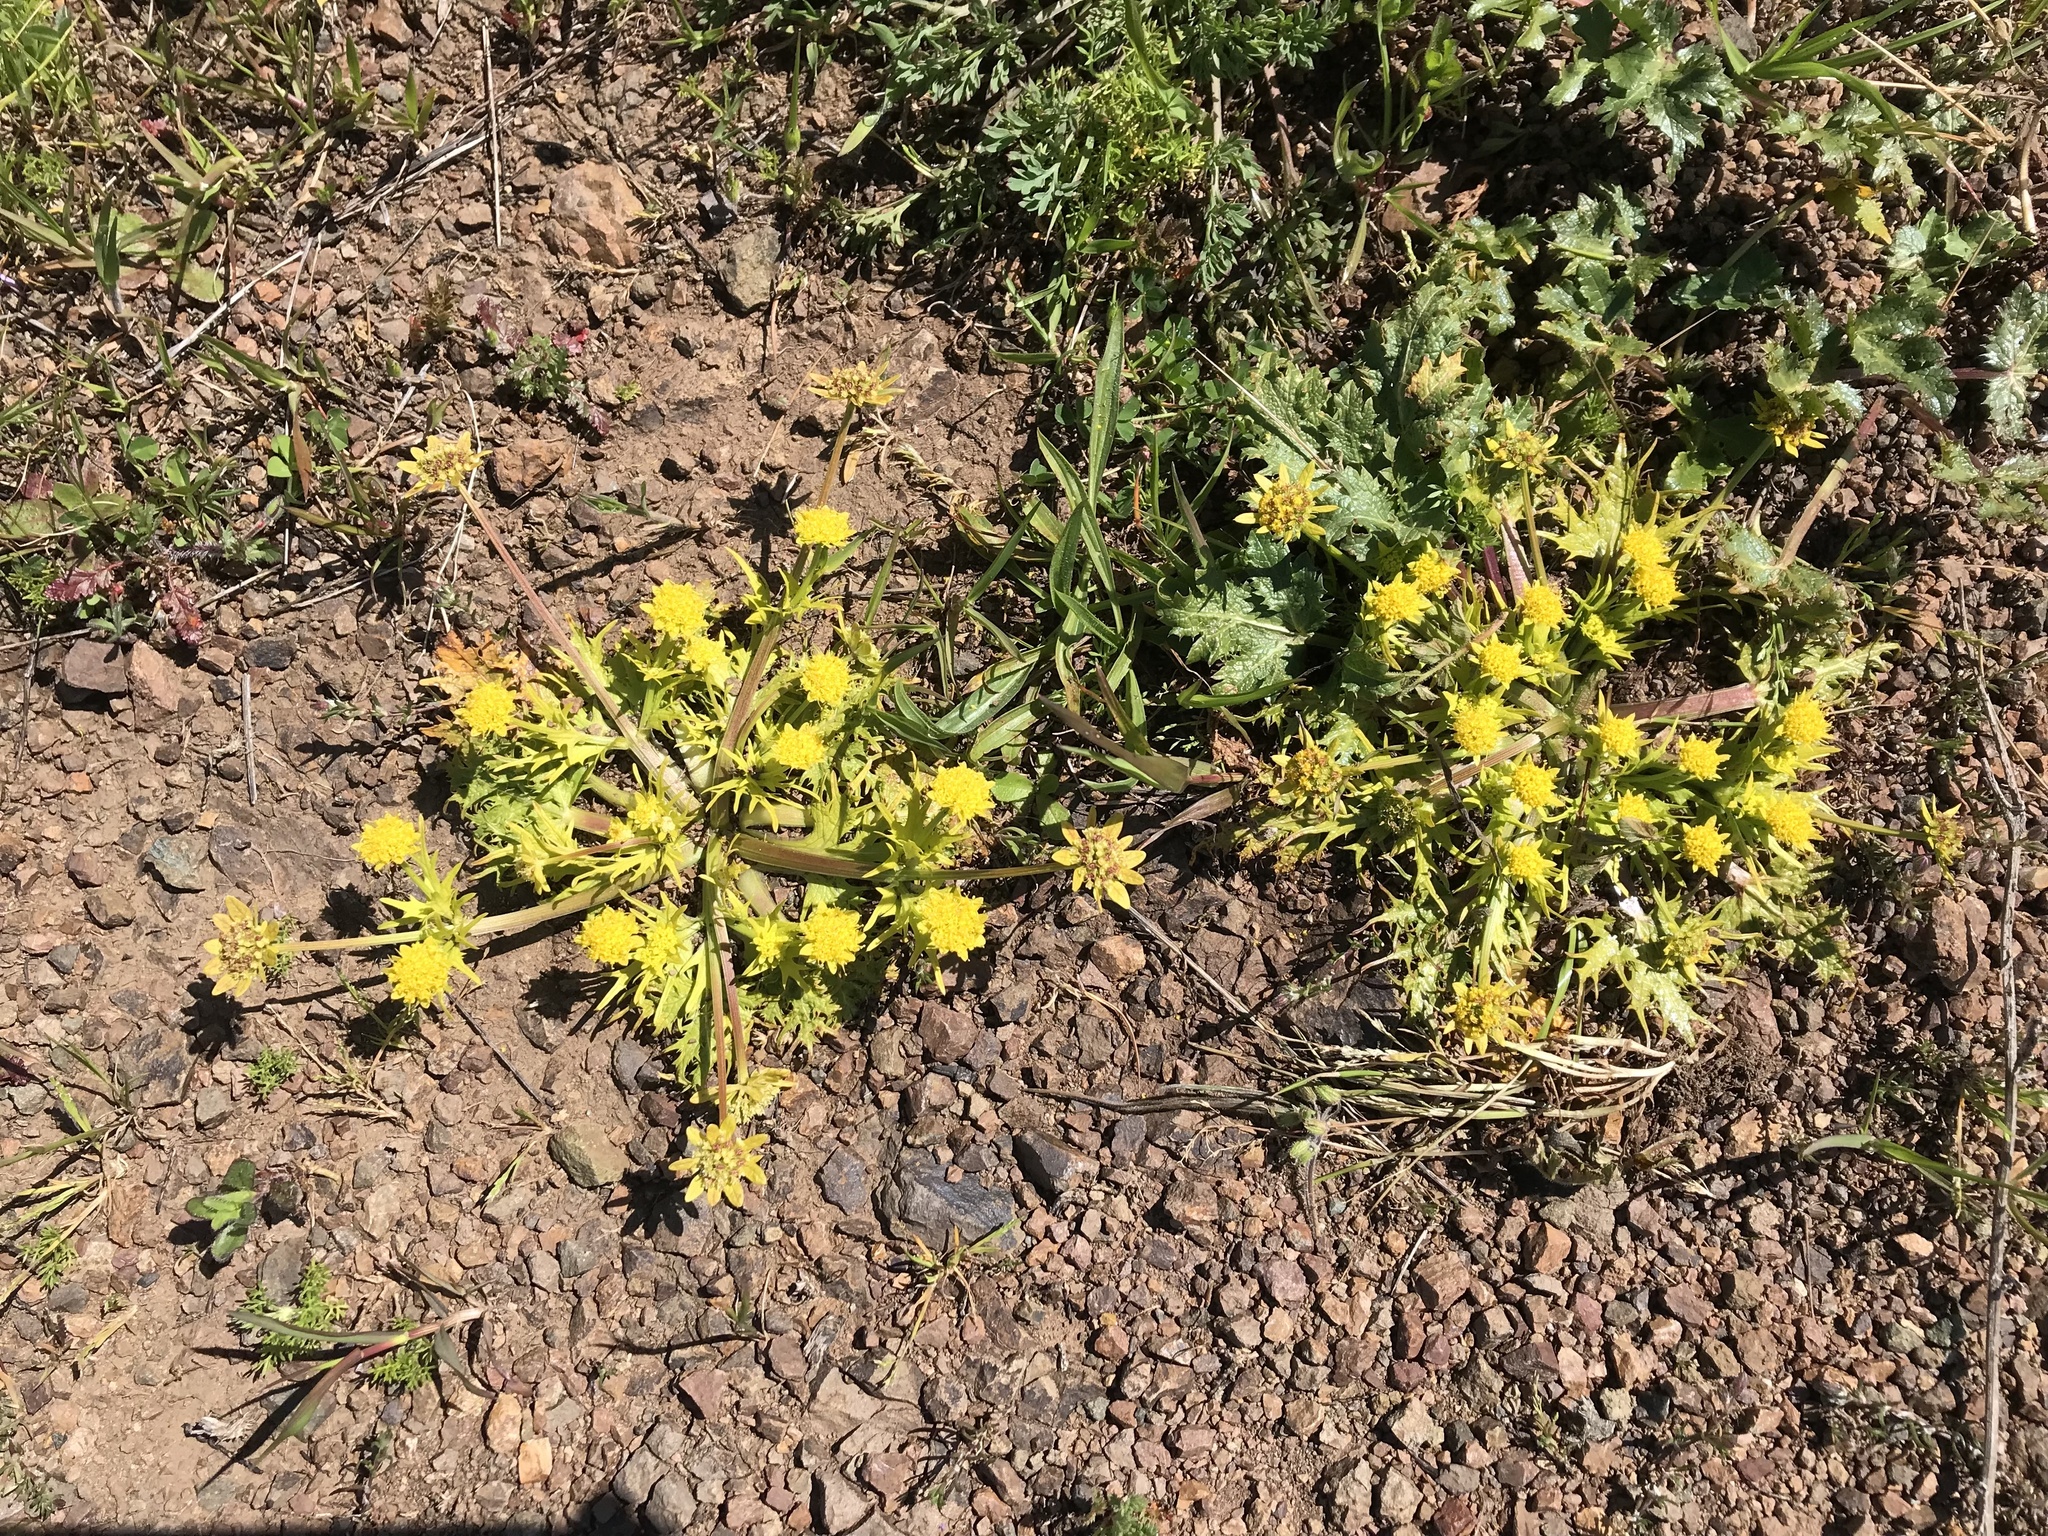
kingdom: Plantae
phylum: Tracheophyta
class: Magnoliopsida
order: Apiales
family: Apiaceae
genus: Sanicula
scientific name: Sanicula arctopoides
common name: Footsteps-of-spring
